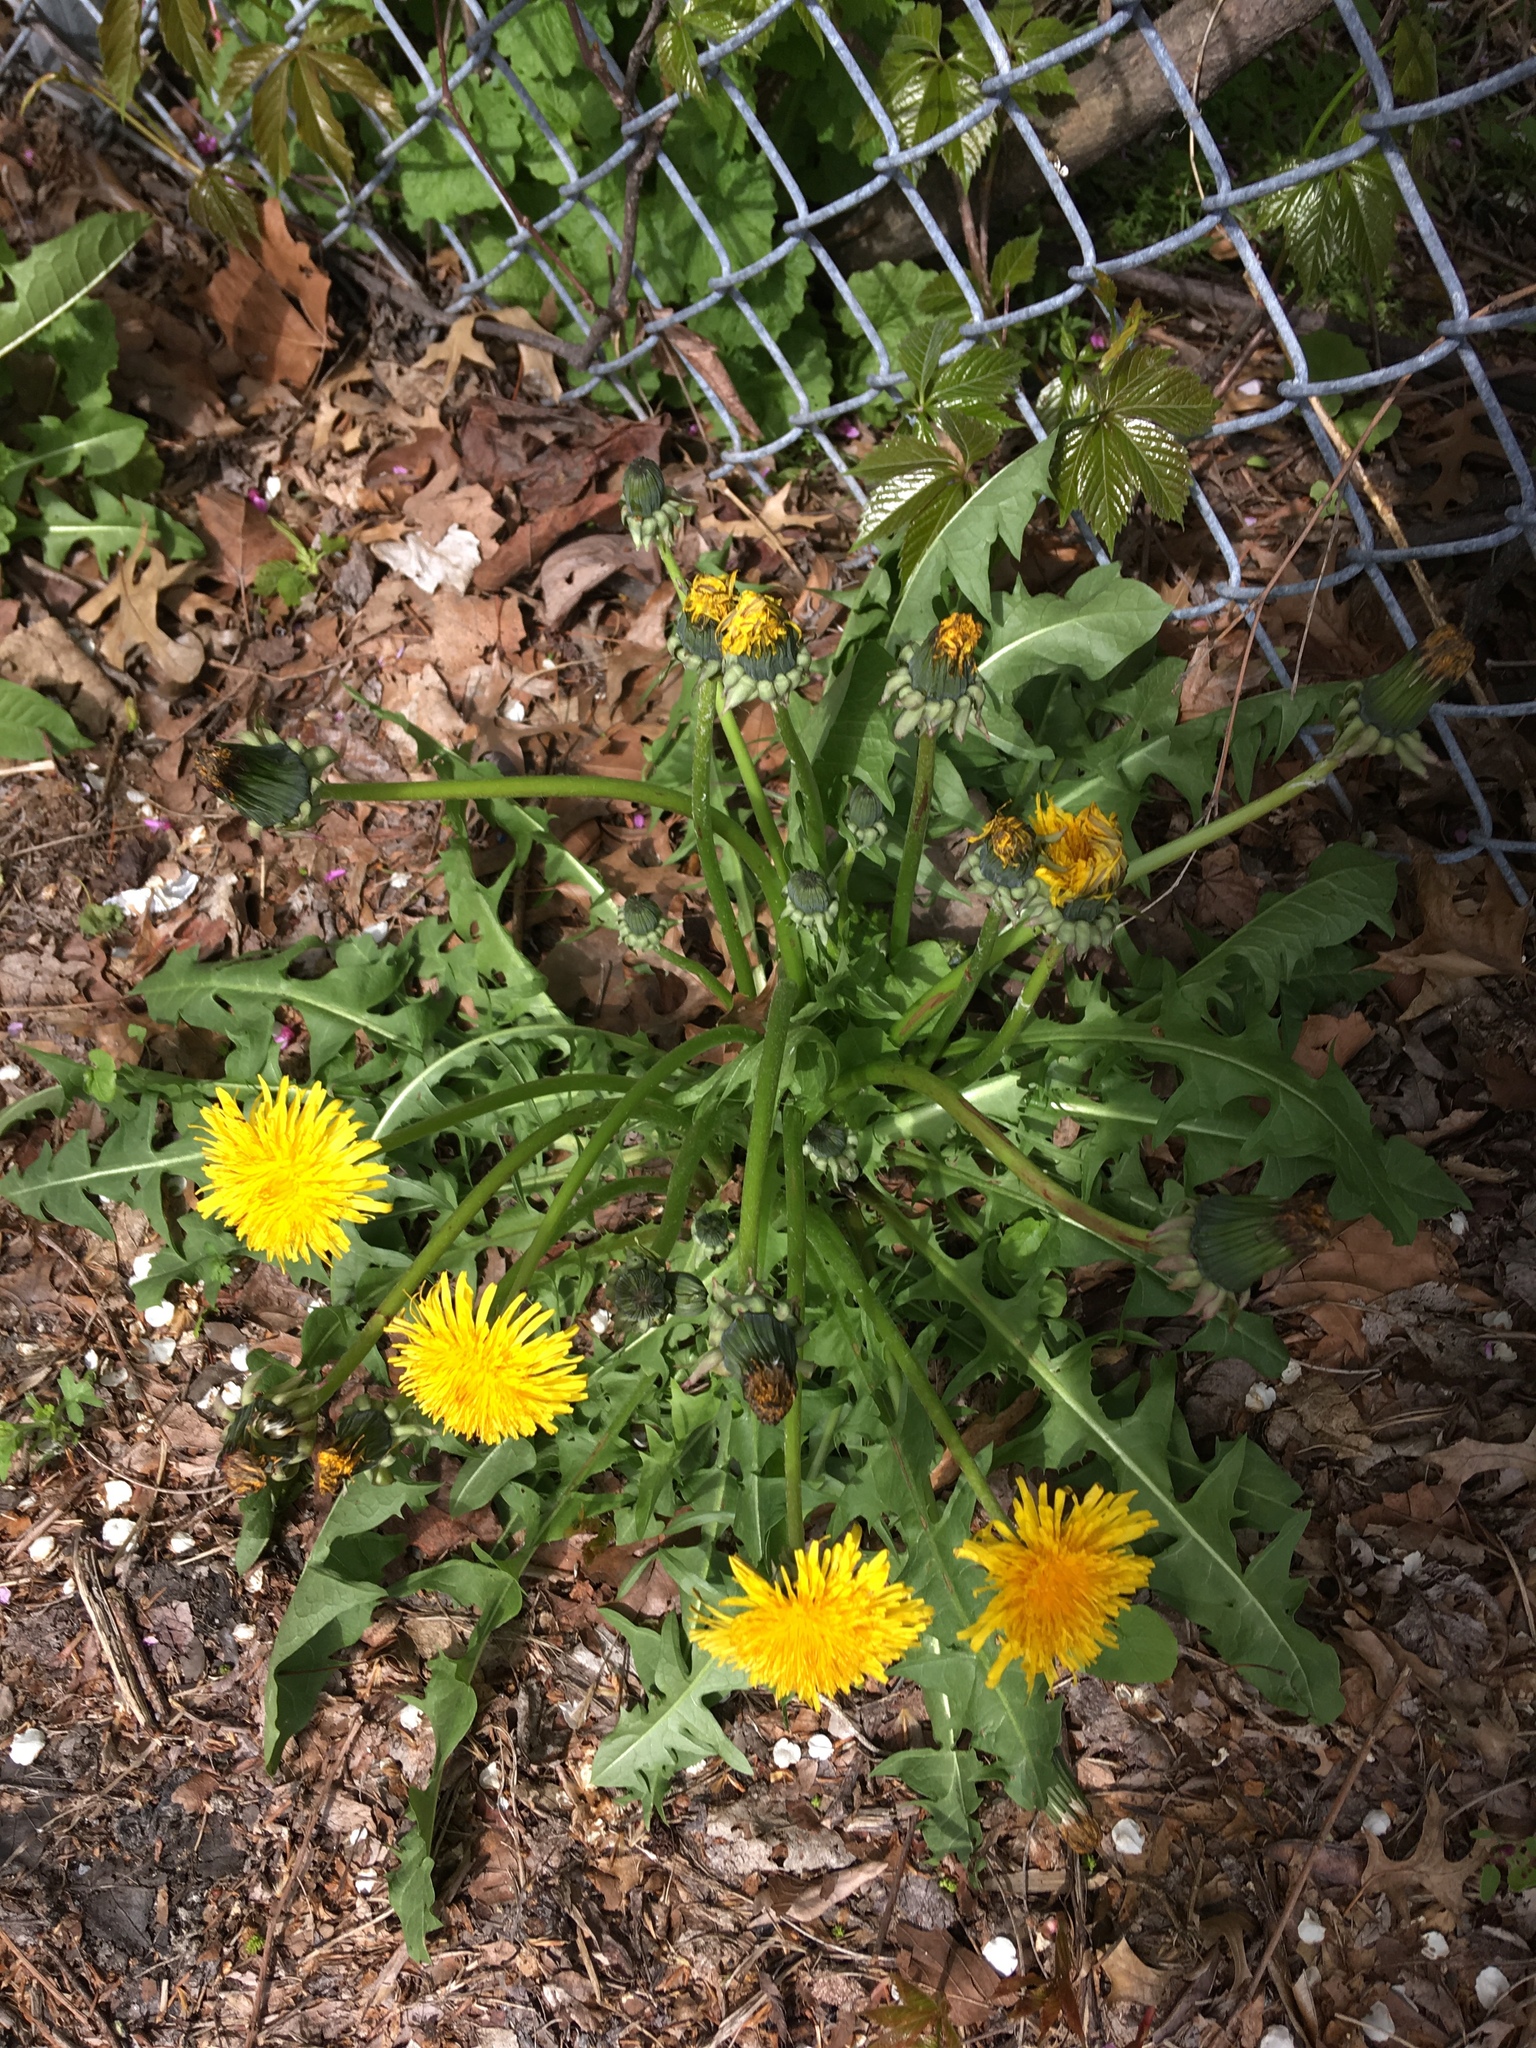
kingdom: Plantae
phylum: Tracheophyta
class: Magnoliopsida
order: Asterales
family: Asteraceae
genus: Taraxacum
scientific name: Taraxacum officinale
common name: Common dandelion
